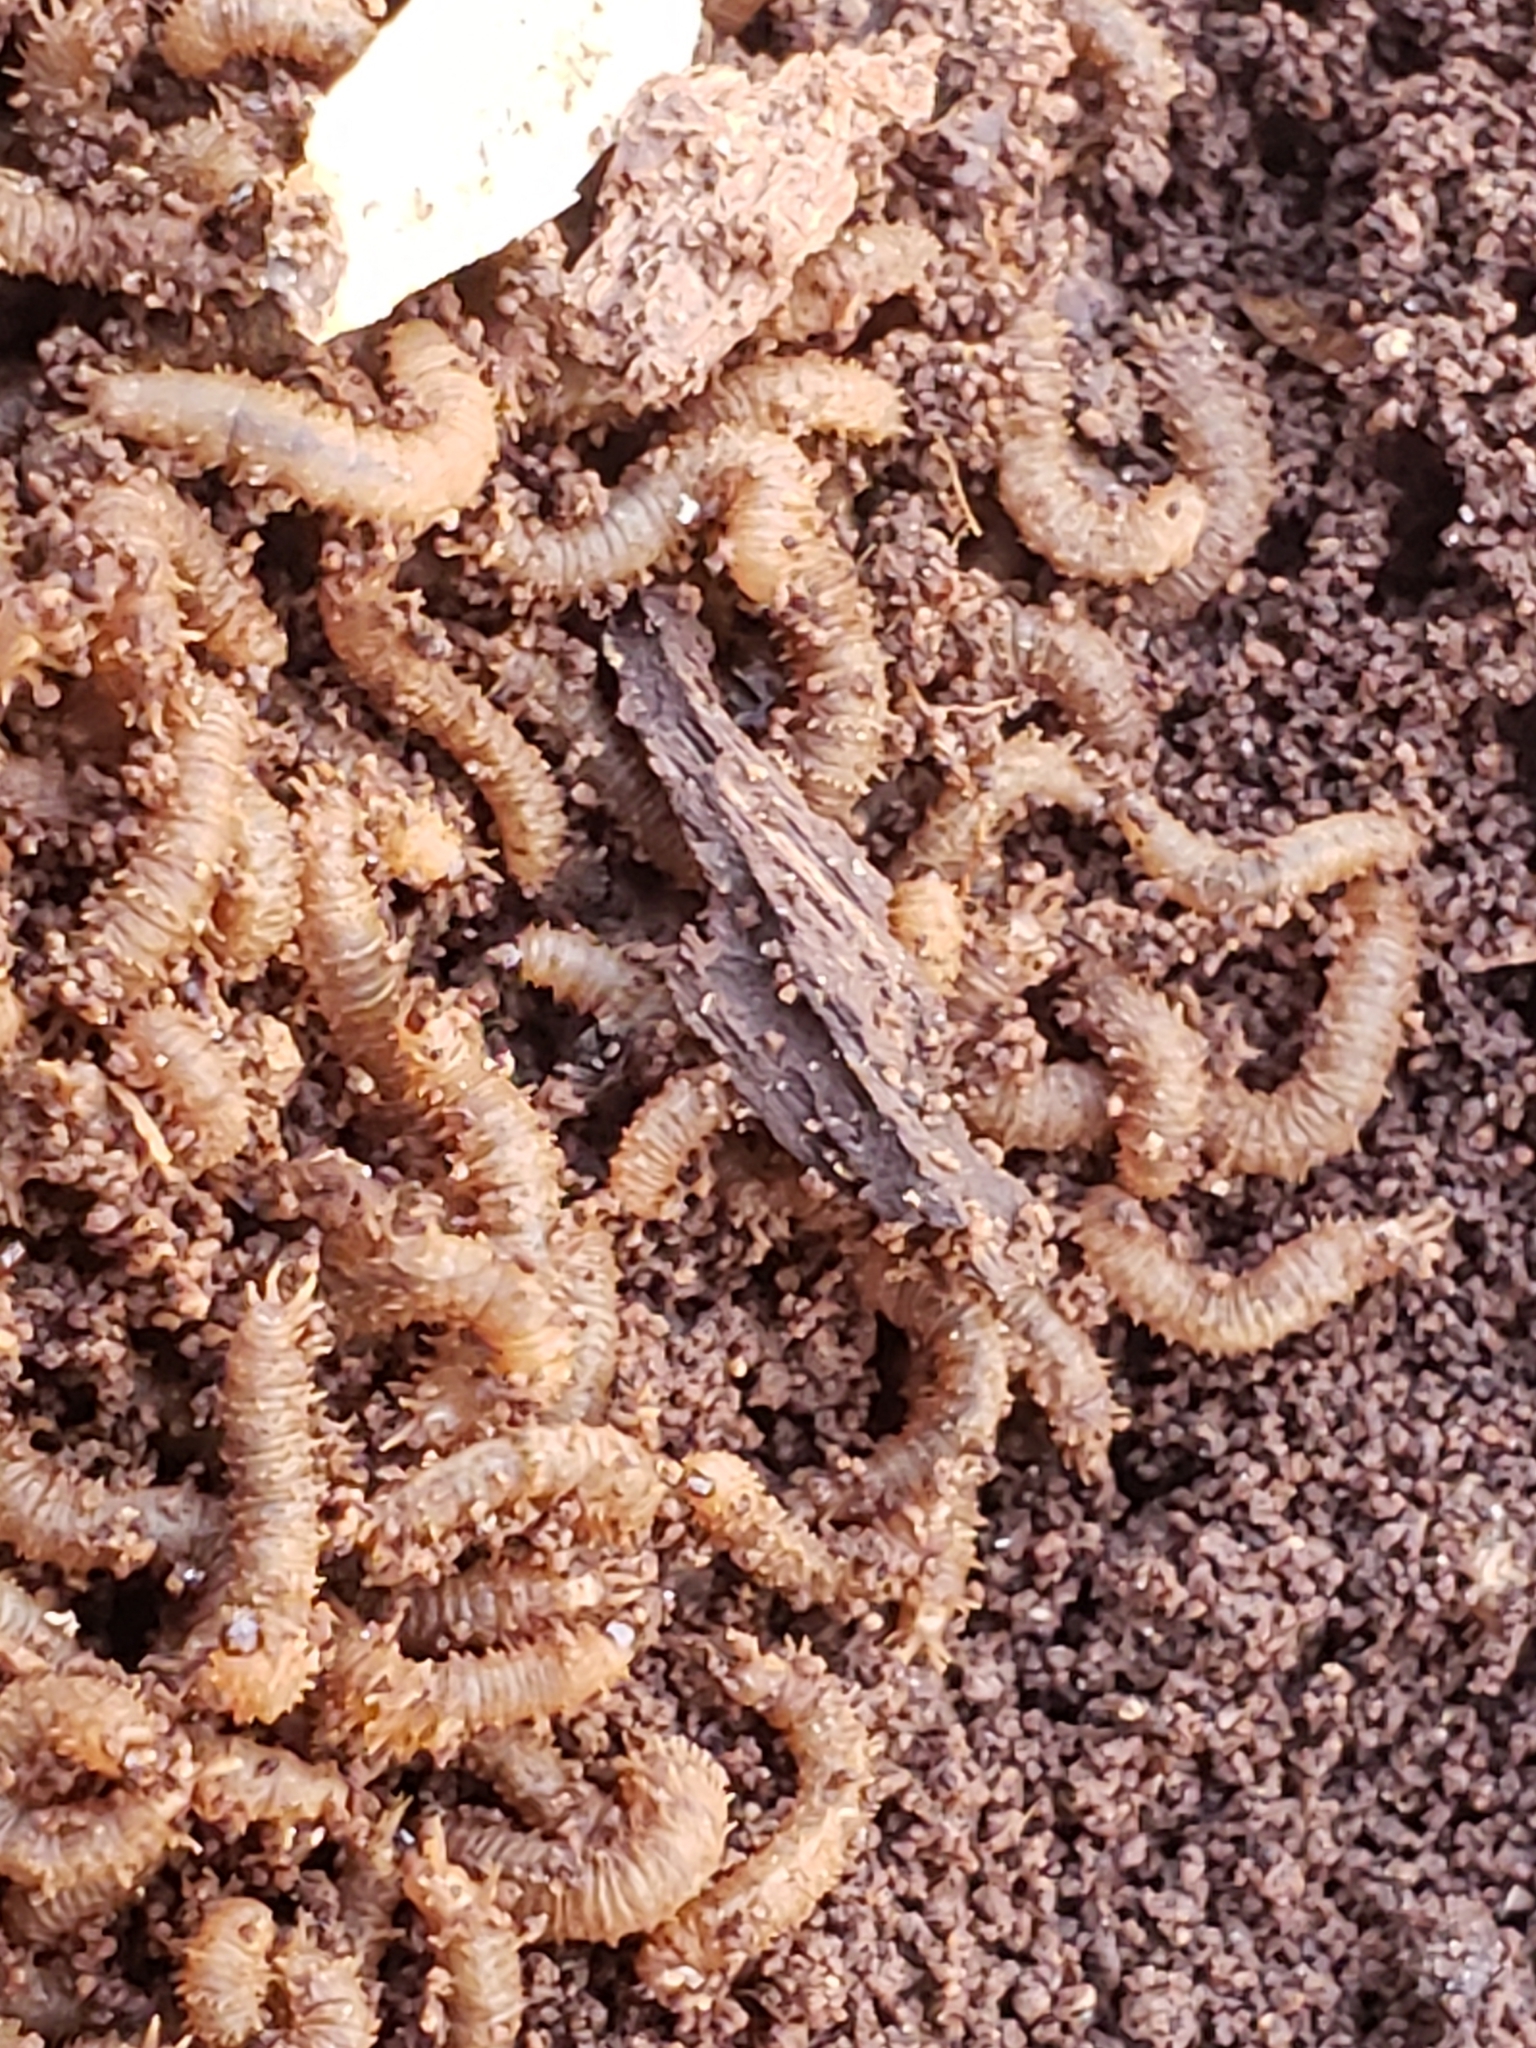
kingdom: Animalia
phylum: Arthropoda
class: Insecta
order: Diptera
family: Bibionidae
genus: Bibio
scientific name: Bibio
